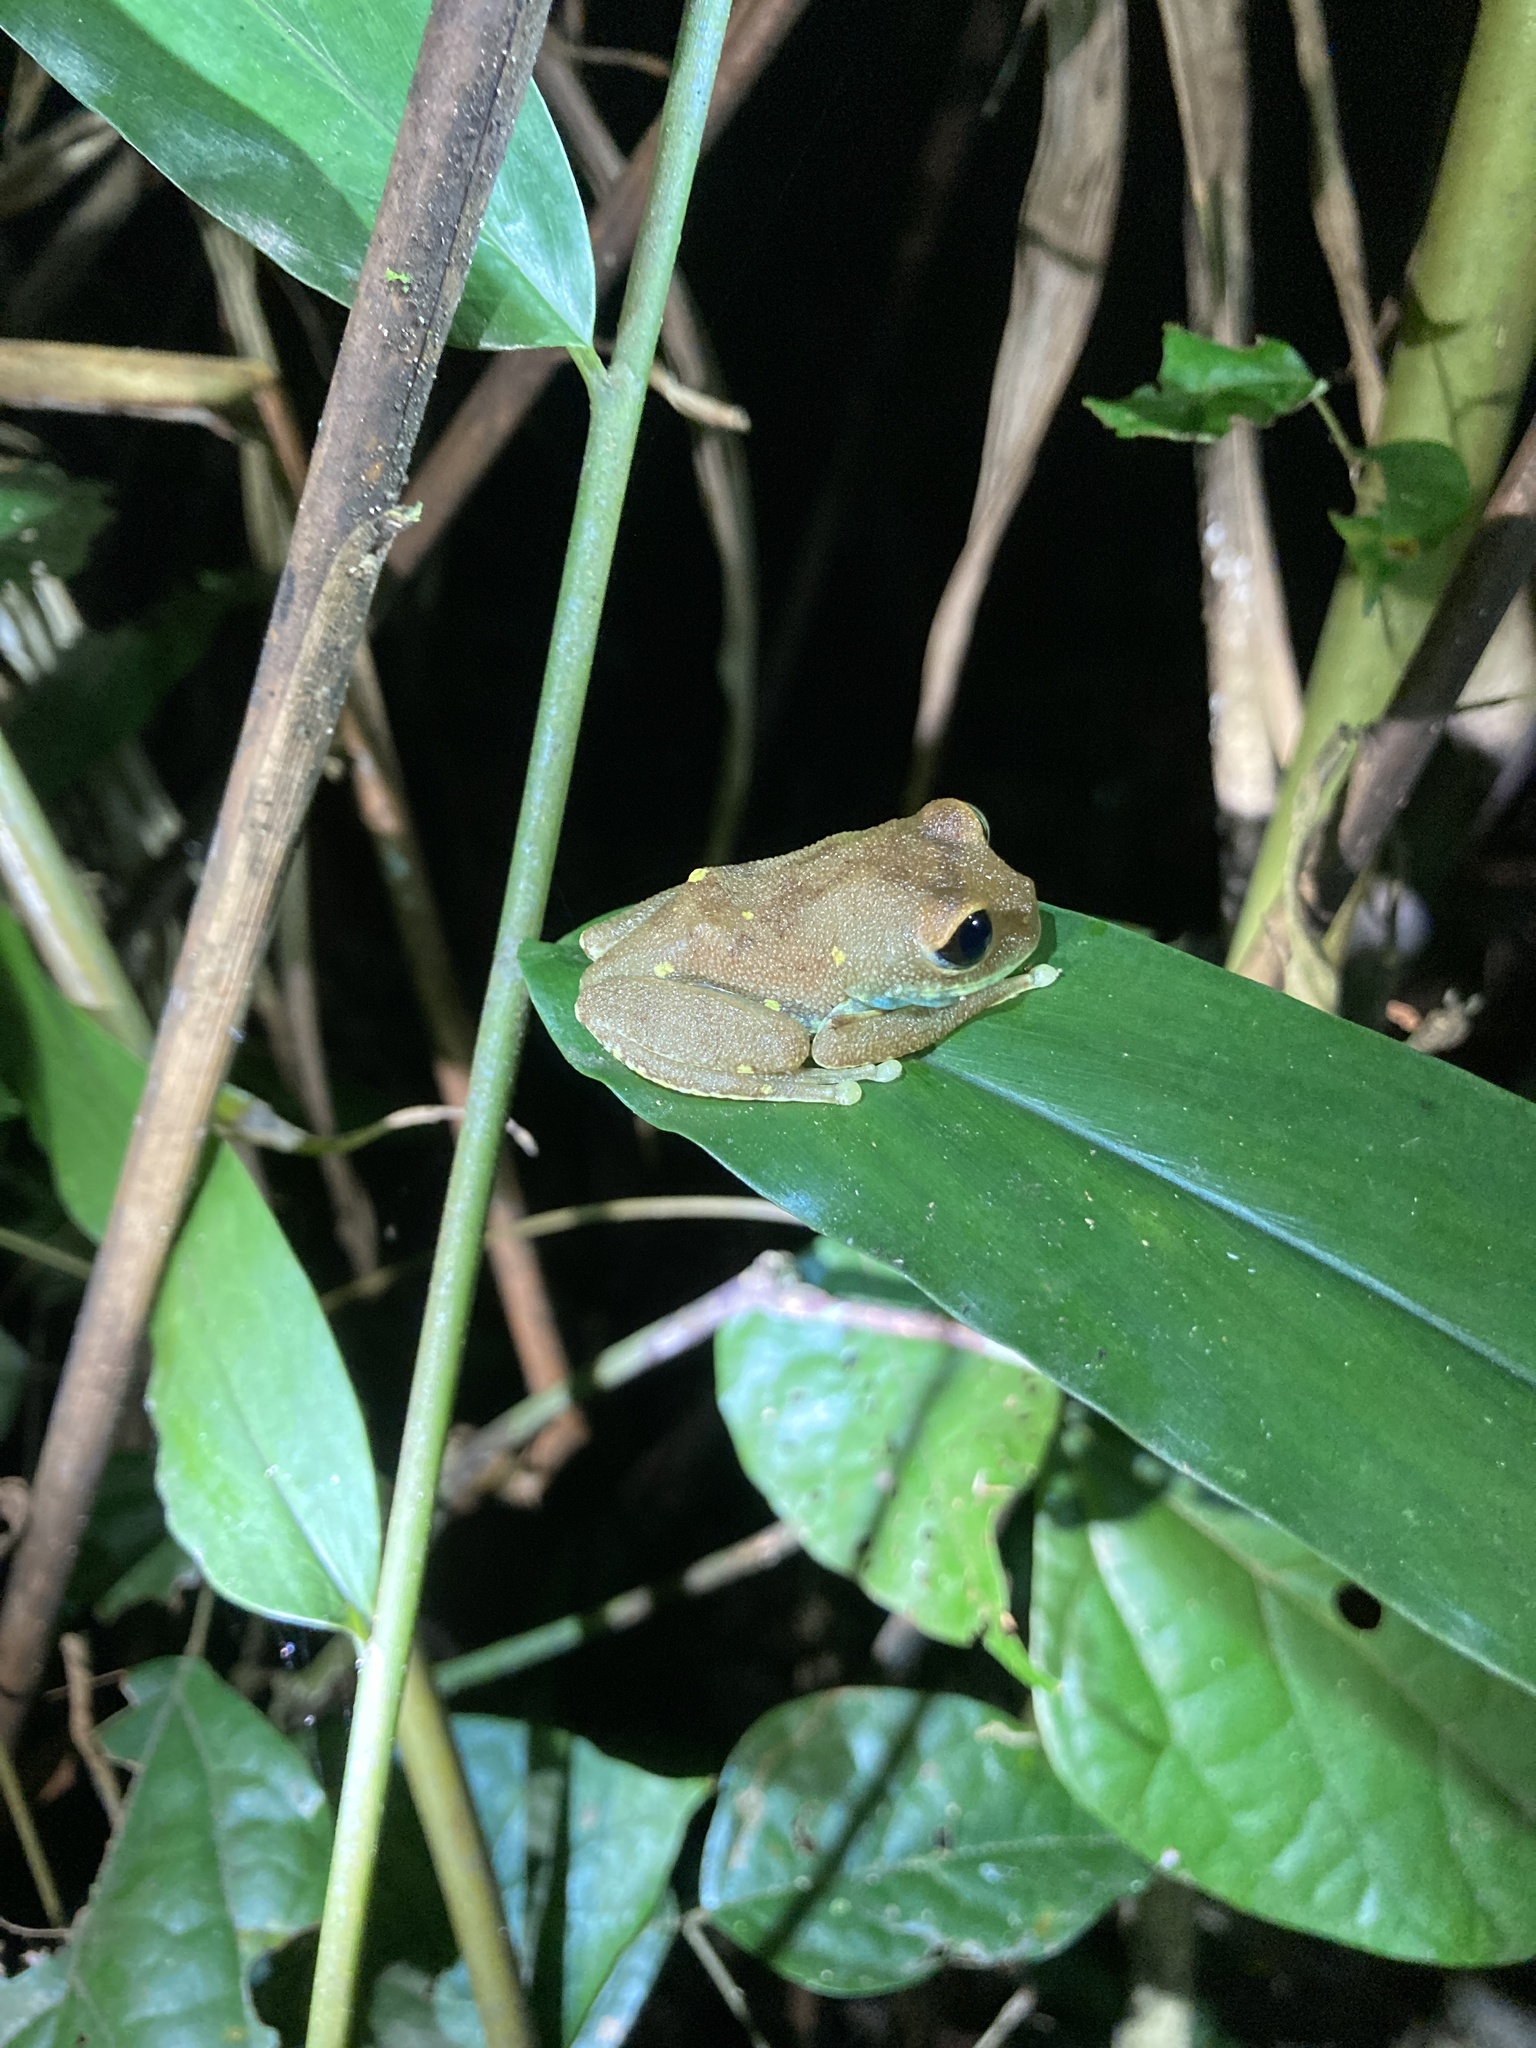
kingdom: Animalia
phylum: Chordata
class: Amphibia
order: Anura
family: Arthroleptidae
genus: Leptopelis
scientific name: Leptopelis uluguruensis
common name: Uluguru forest treefrog
